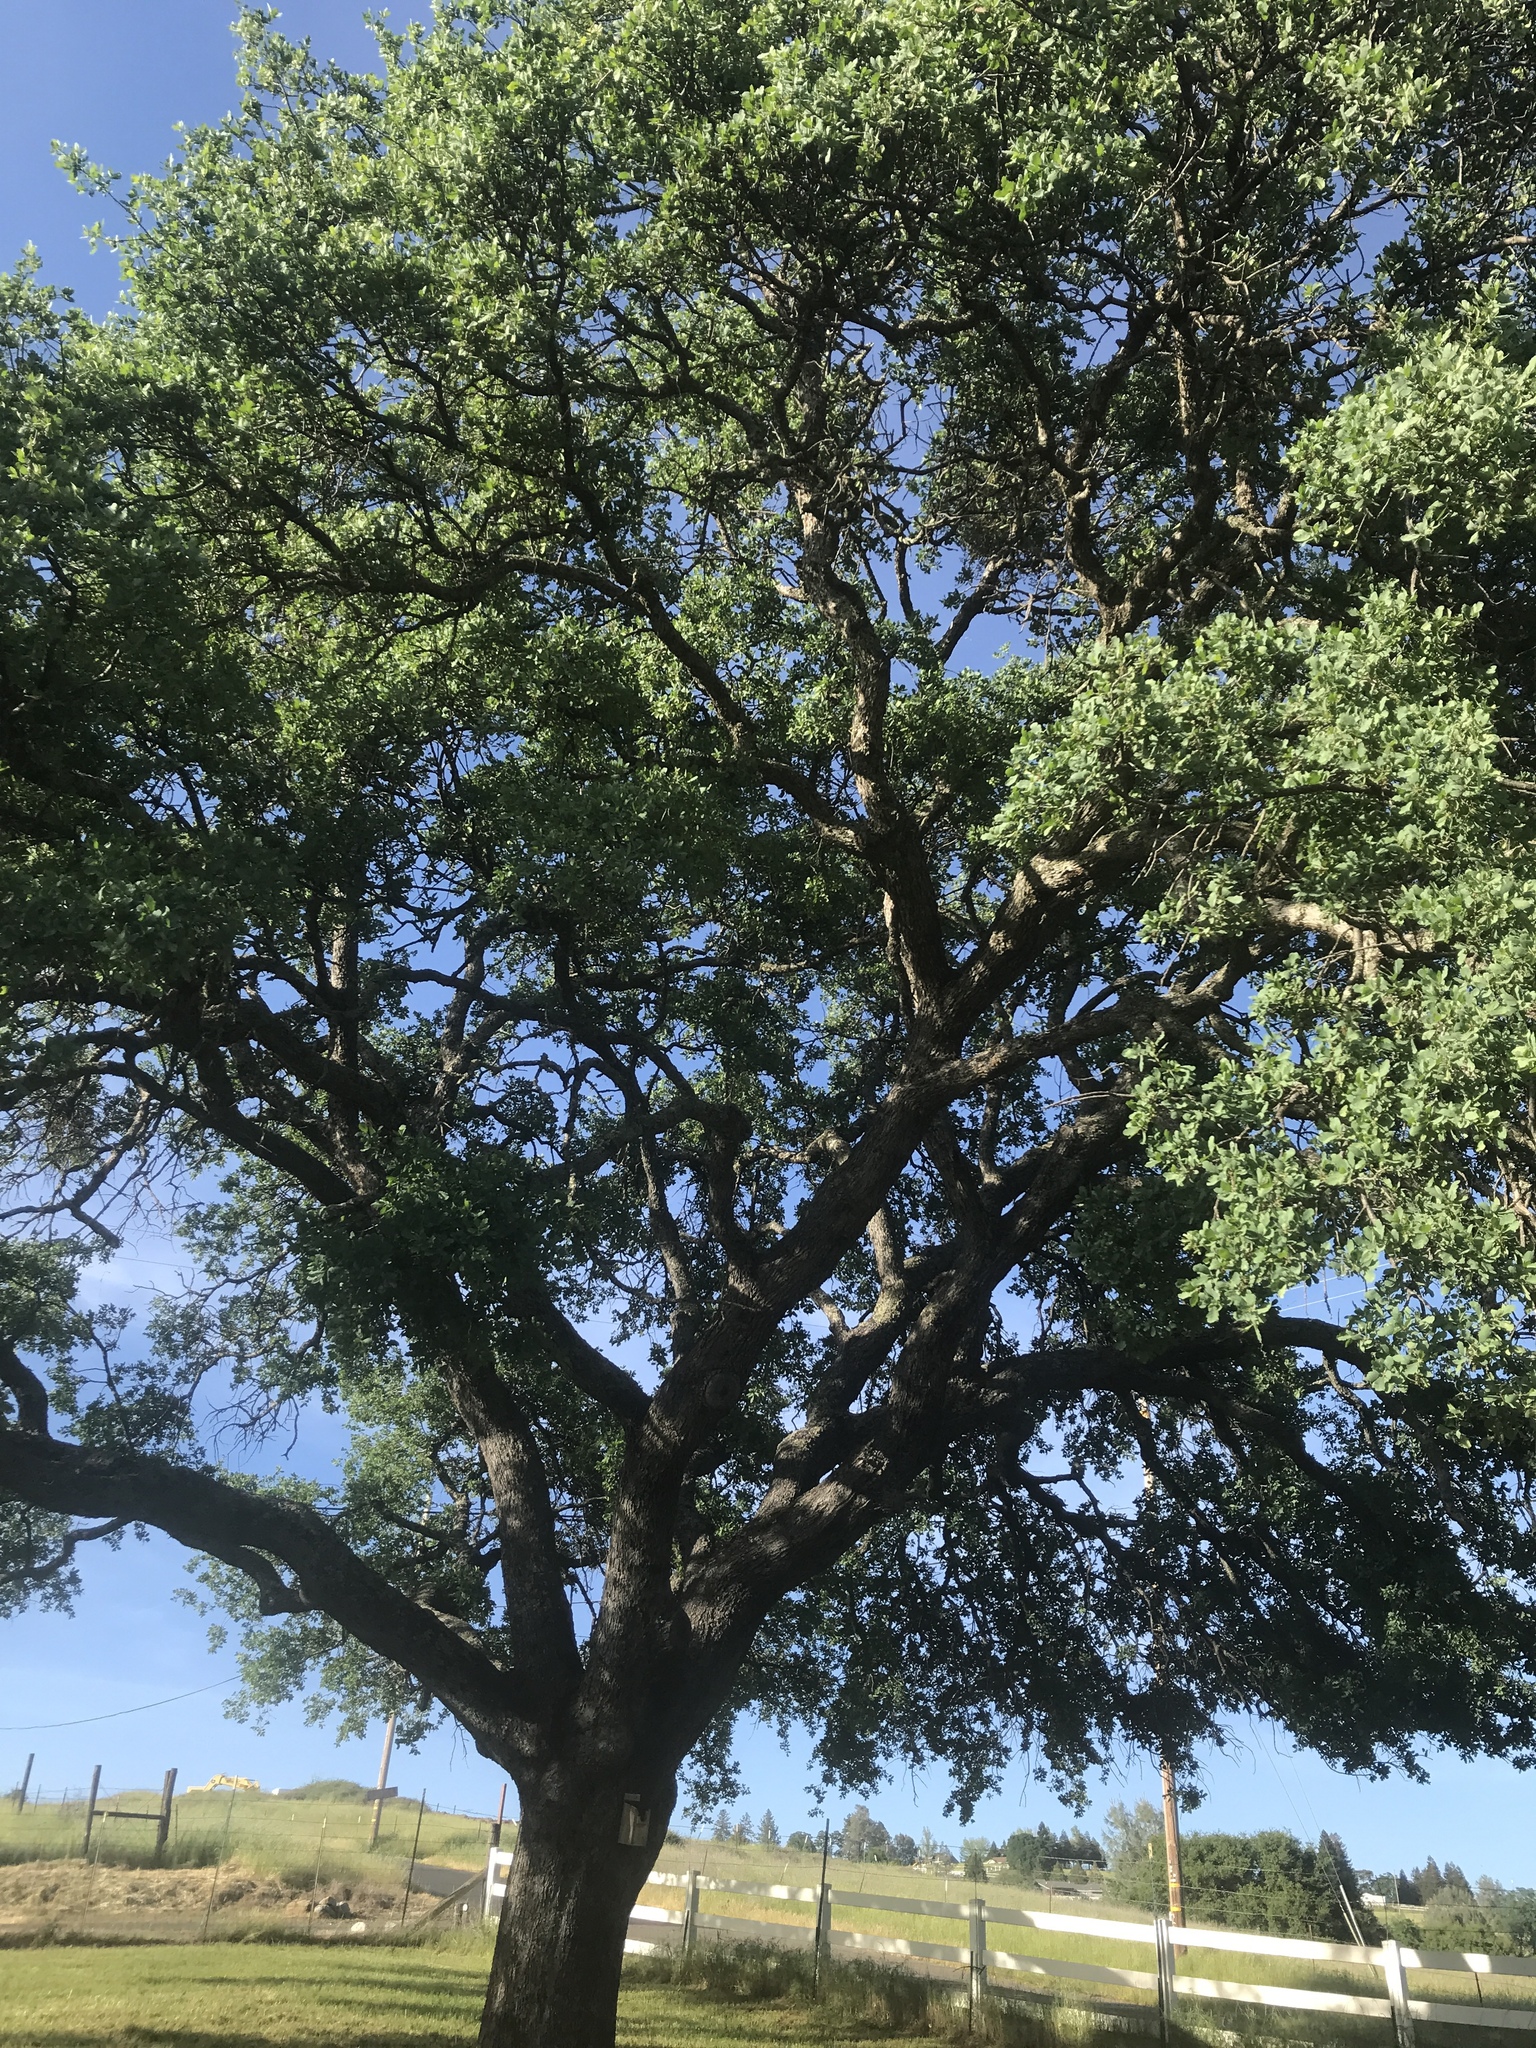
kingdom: Plantae
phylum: Tracheophyta
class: Magnoliopsida
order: Fagales
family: Fagaceae
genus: Quercus
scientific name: Quercus douglasii
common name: Blue oak
